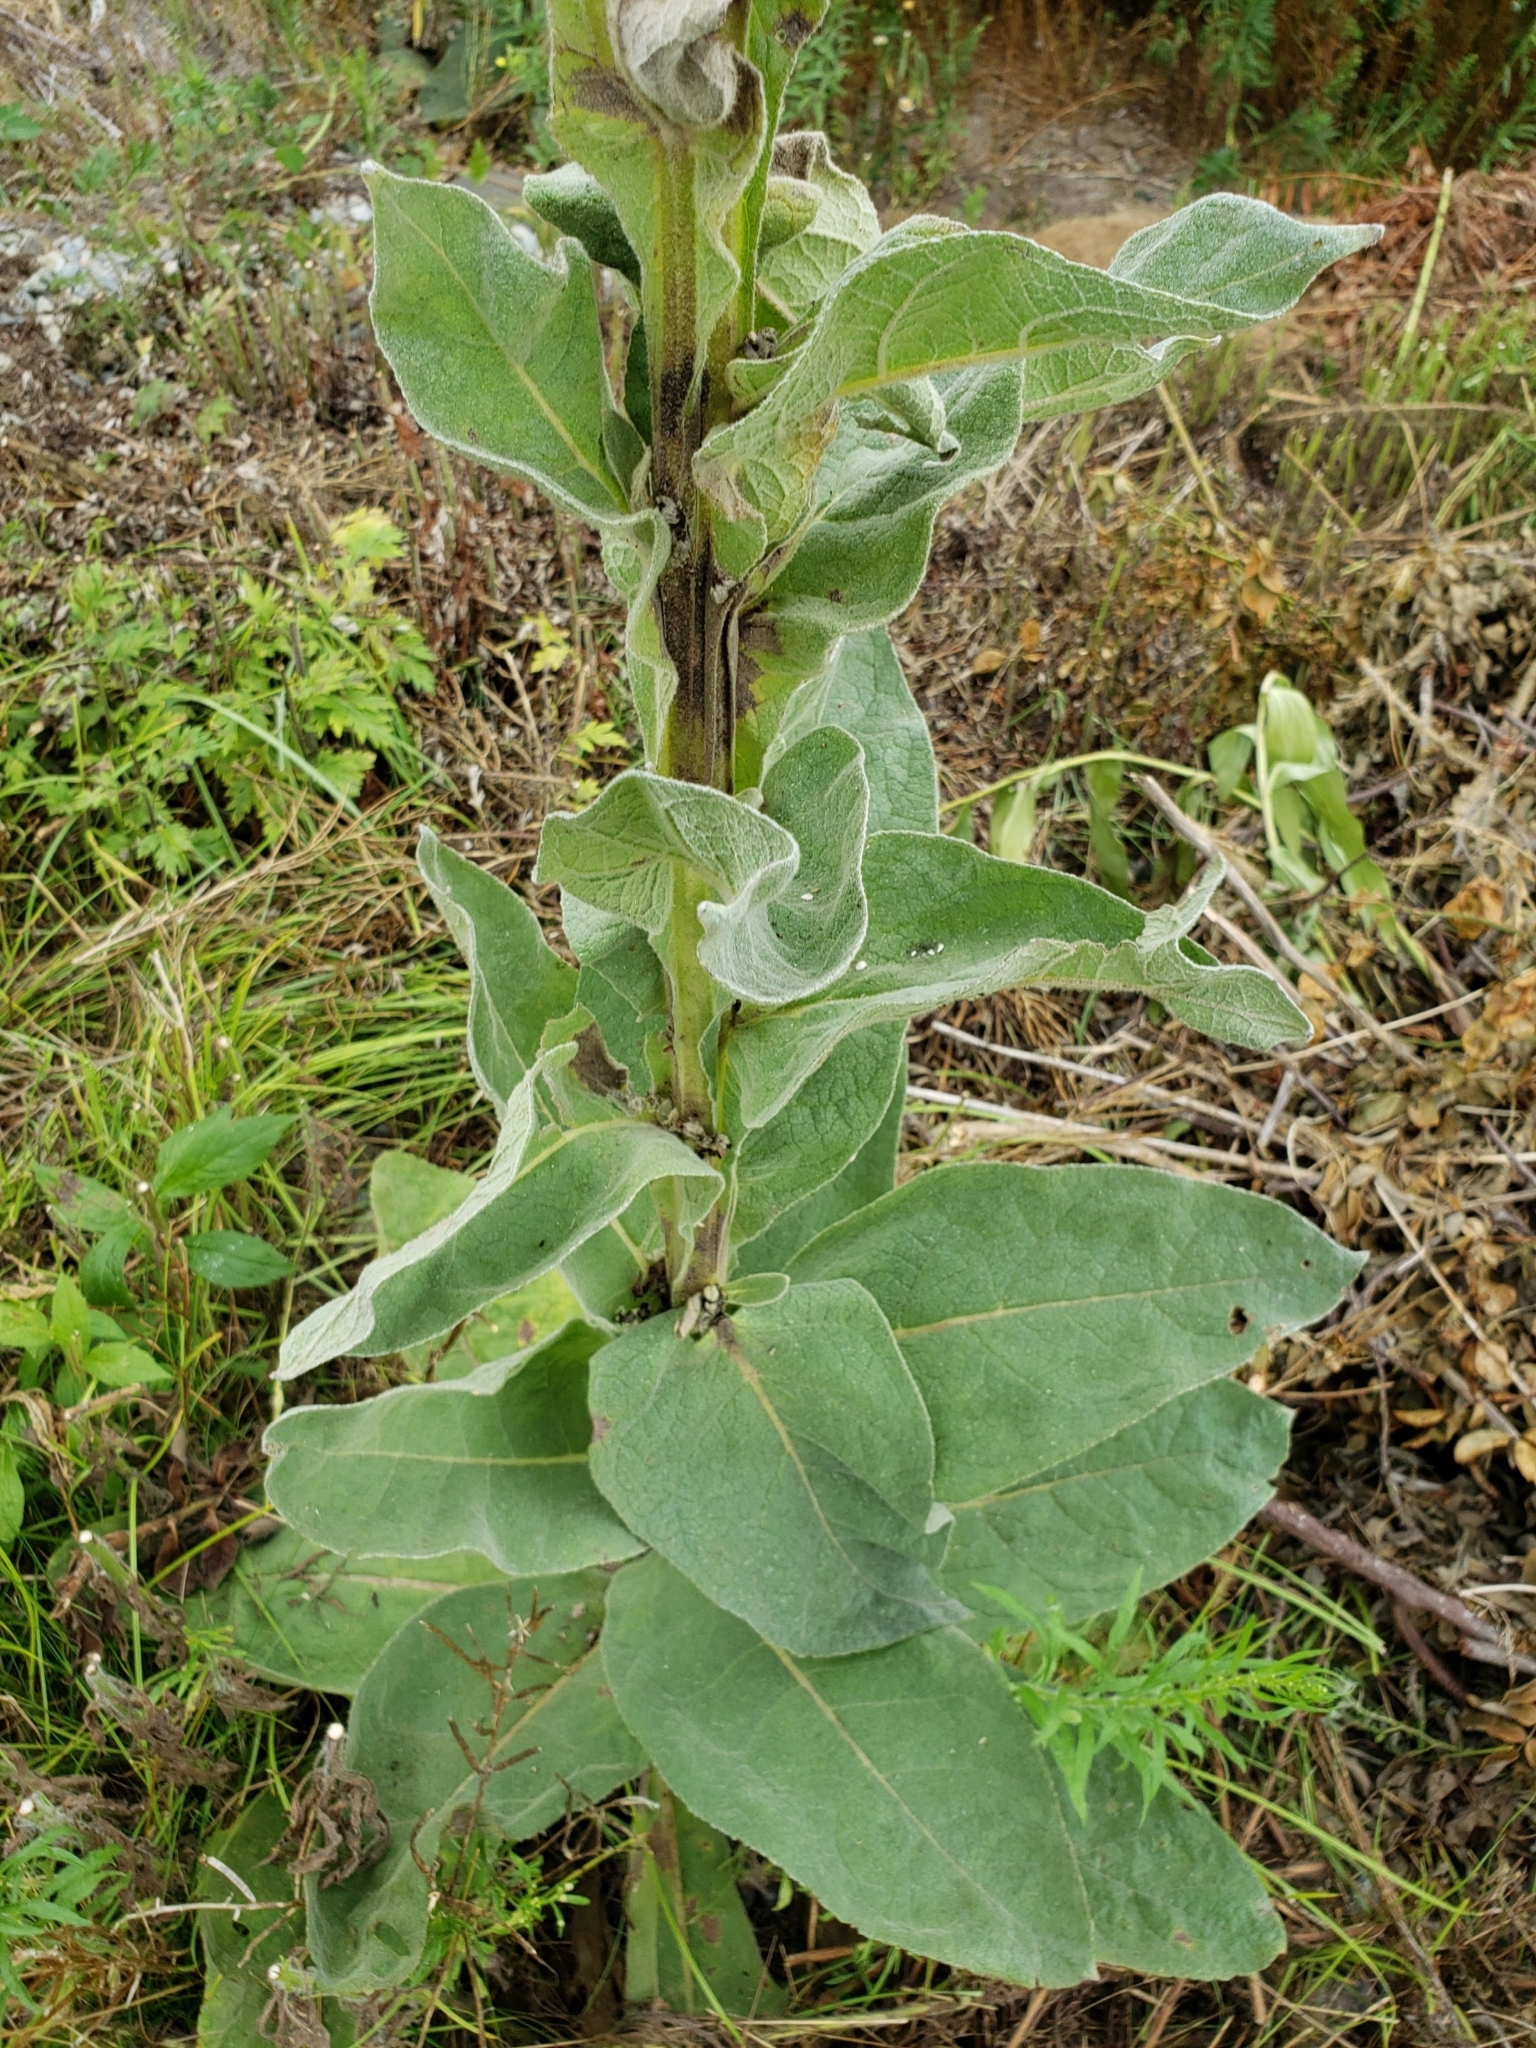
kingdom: Plantae
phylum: Tracheophyta
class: Magnoliopsida
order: Lamiales
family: Scrophulariaceae
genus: Verbascum
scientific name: Verbascum thapsus
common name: Common mullein
